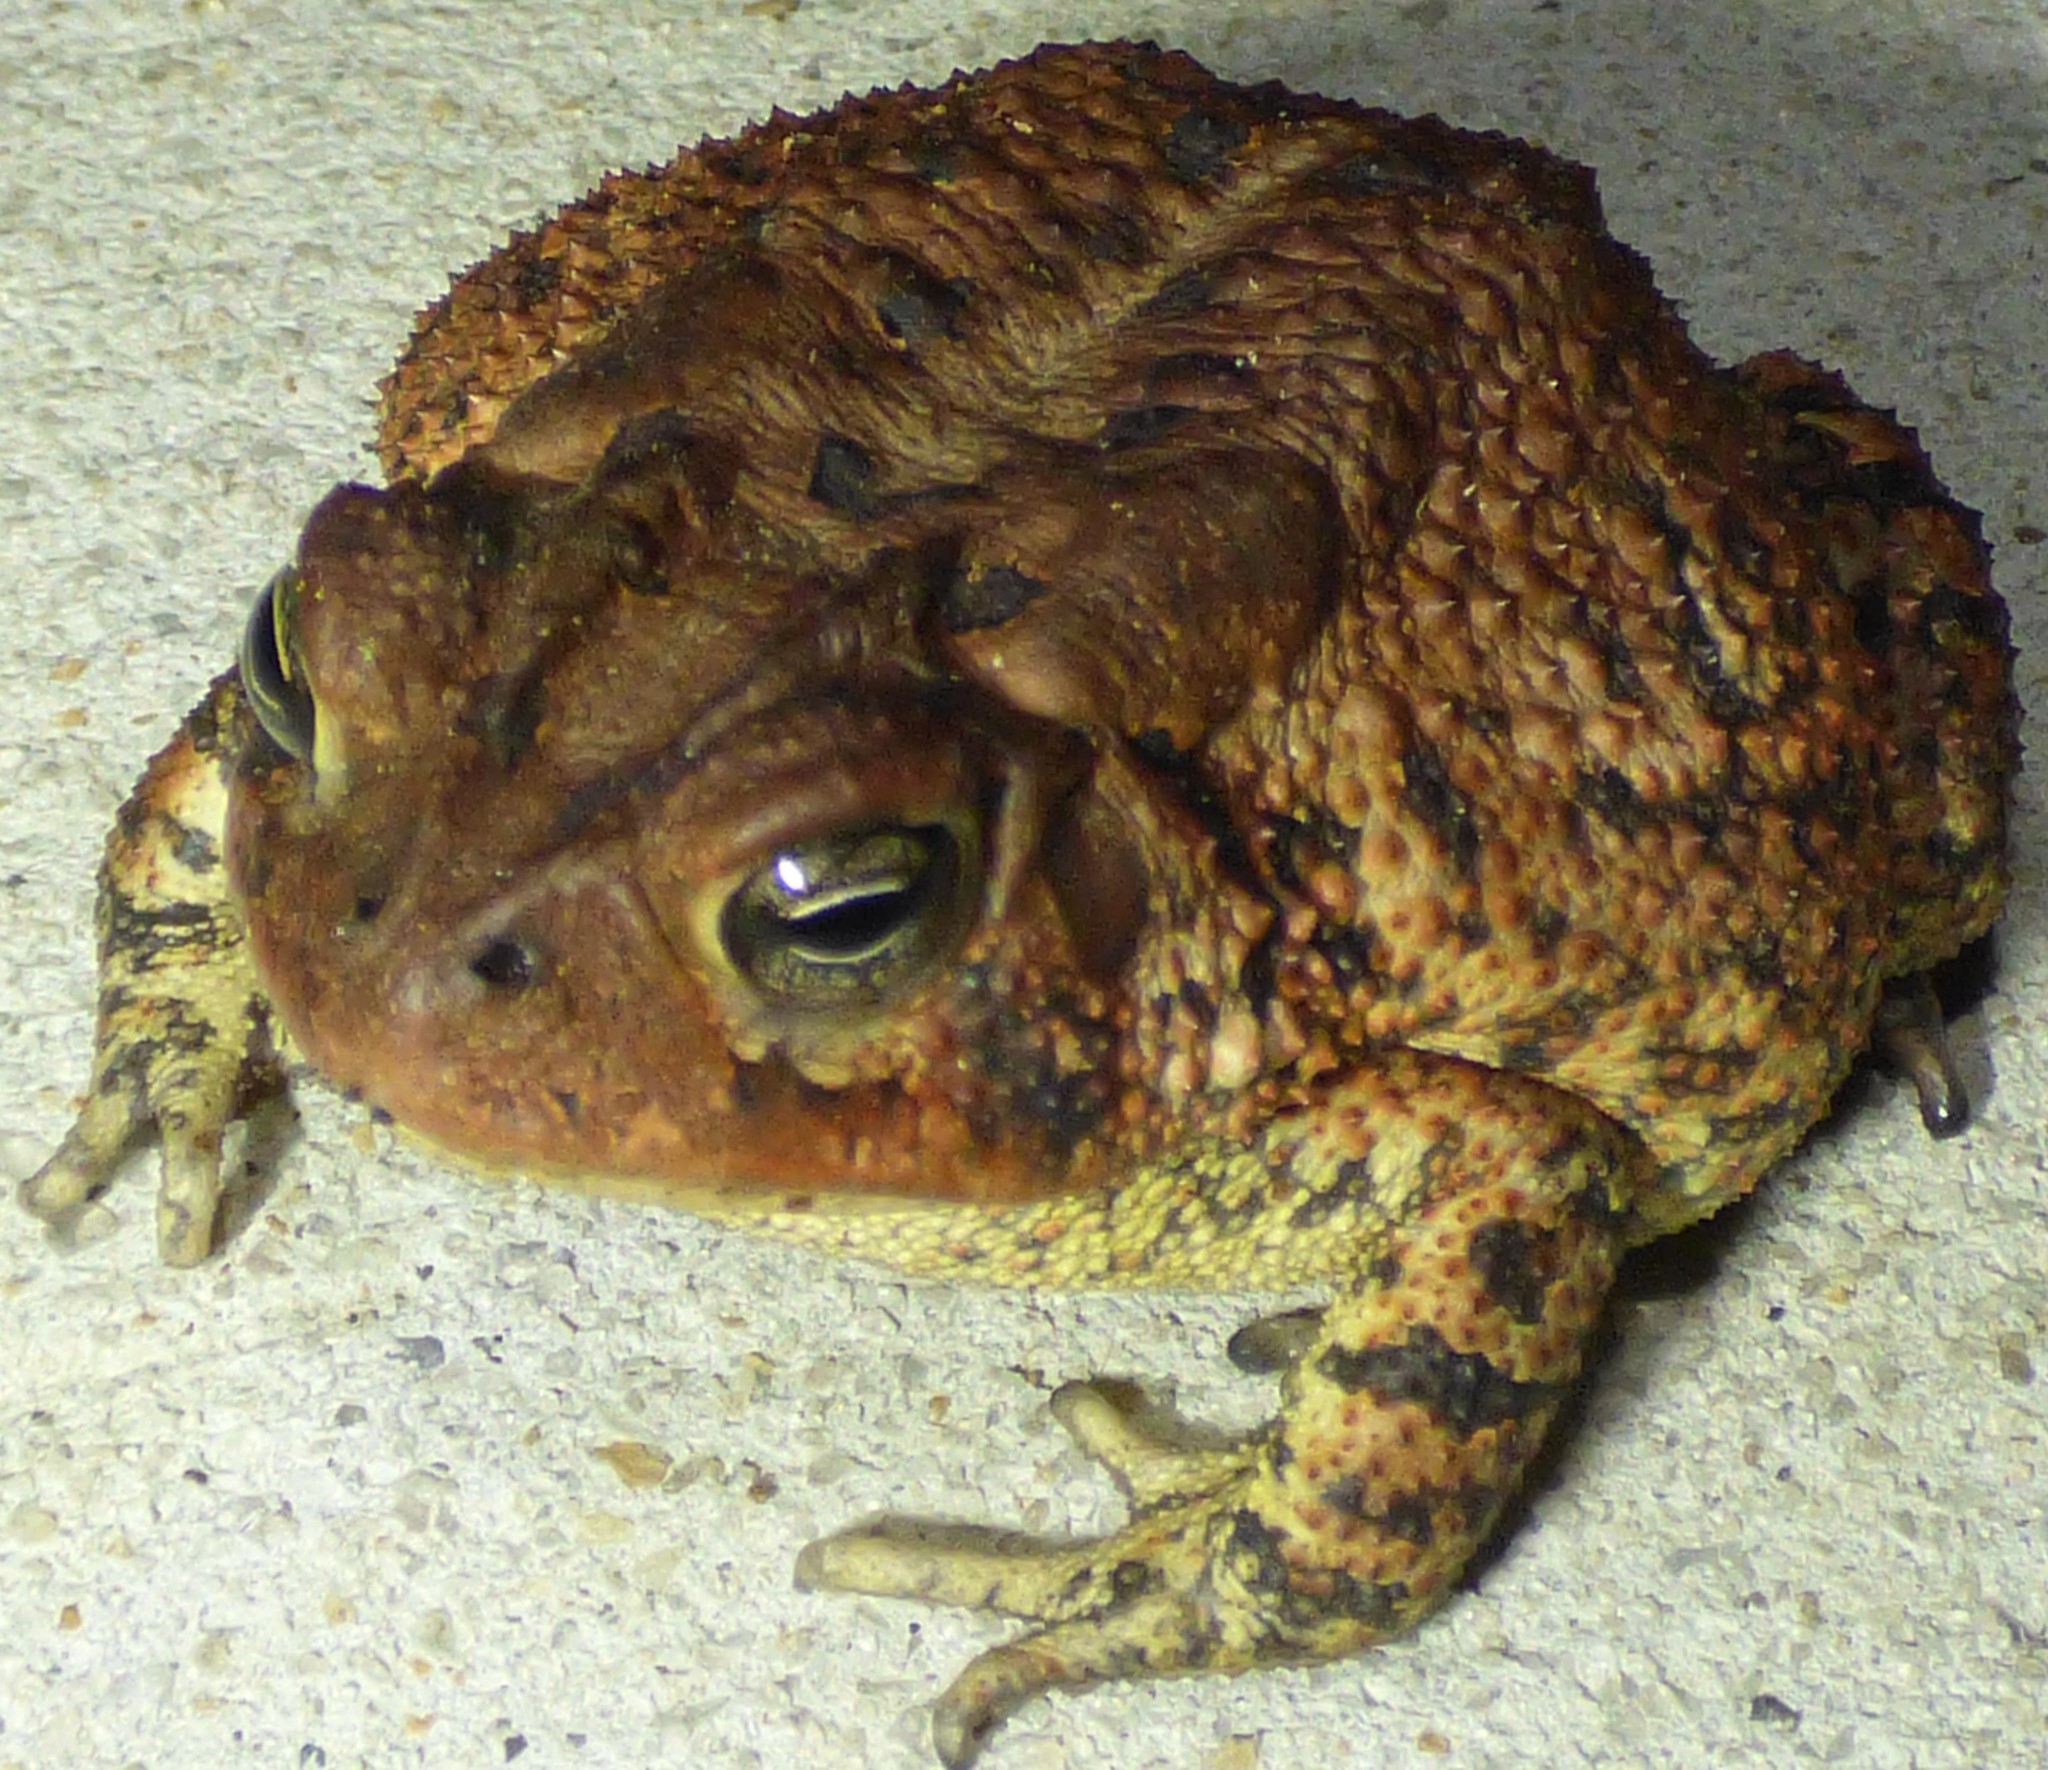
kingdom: Animalia
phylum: Chordata
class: Amphibia
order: Anura
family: Bufonidae
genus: Anaxyrus
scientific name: Anaxyrus terrestris
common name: Southern toad
